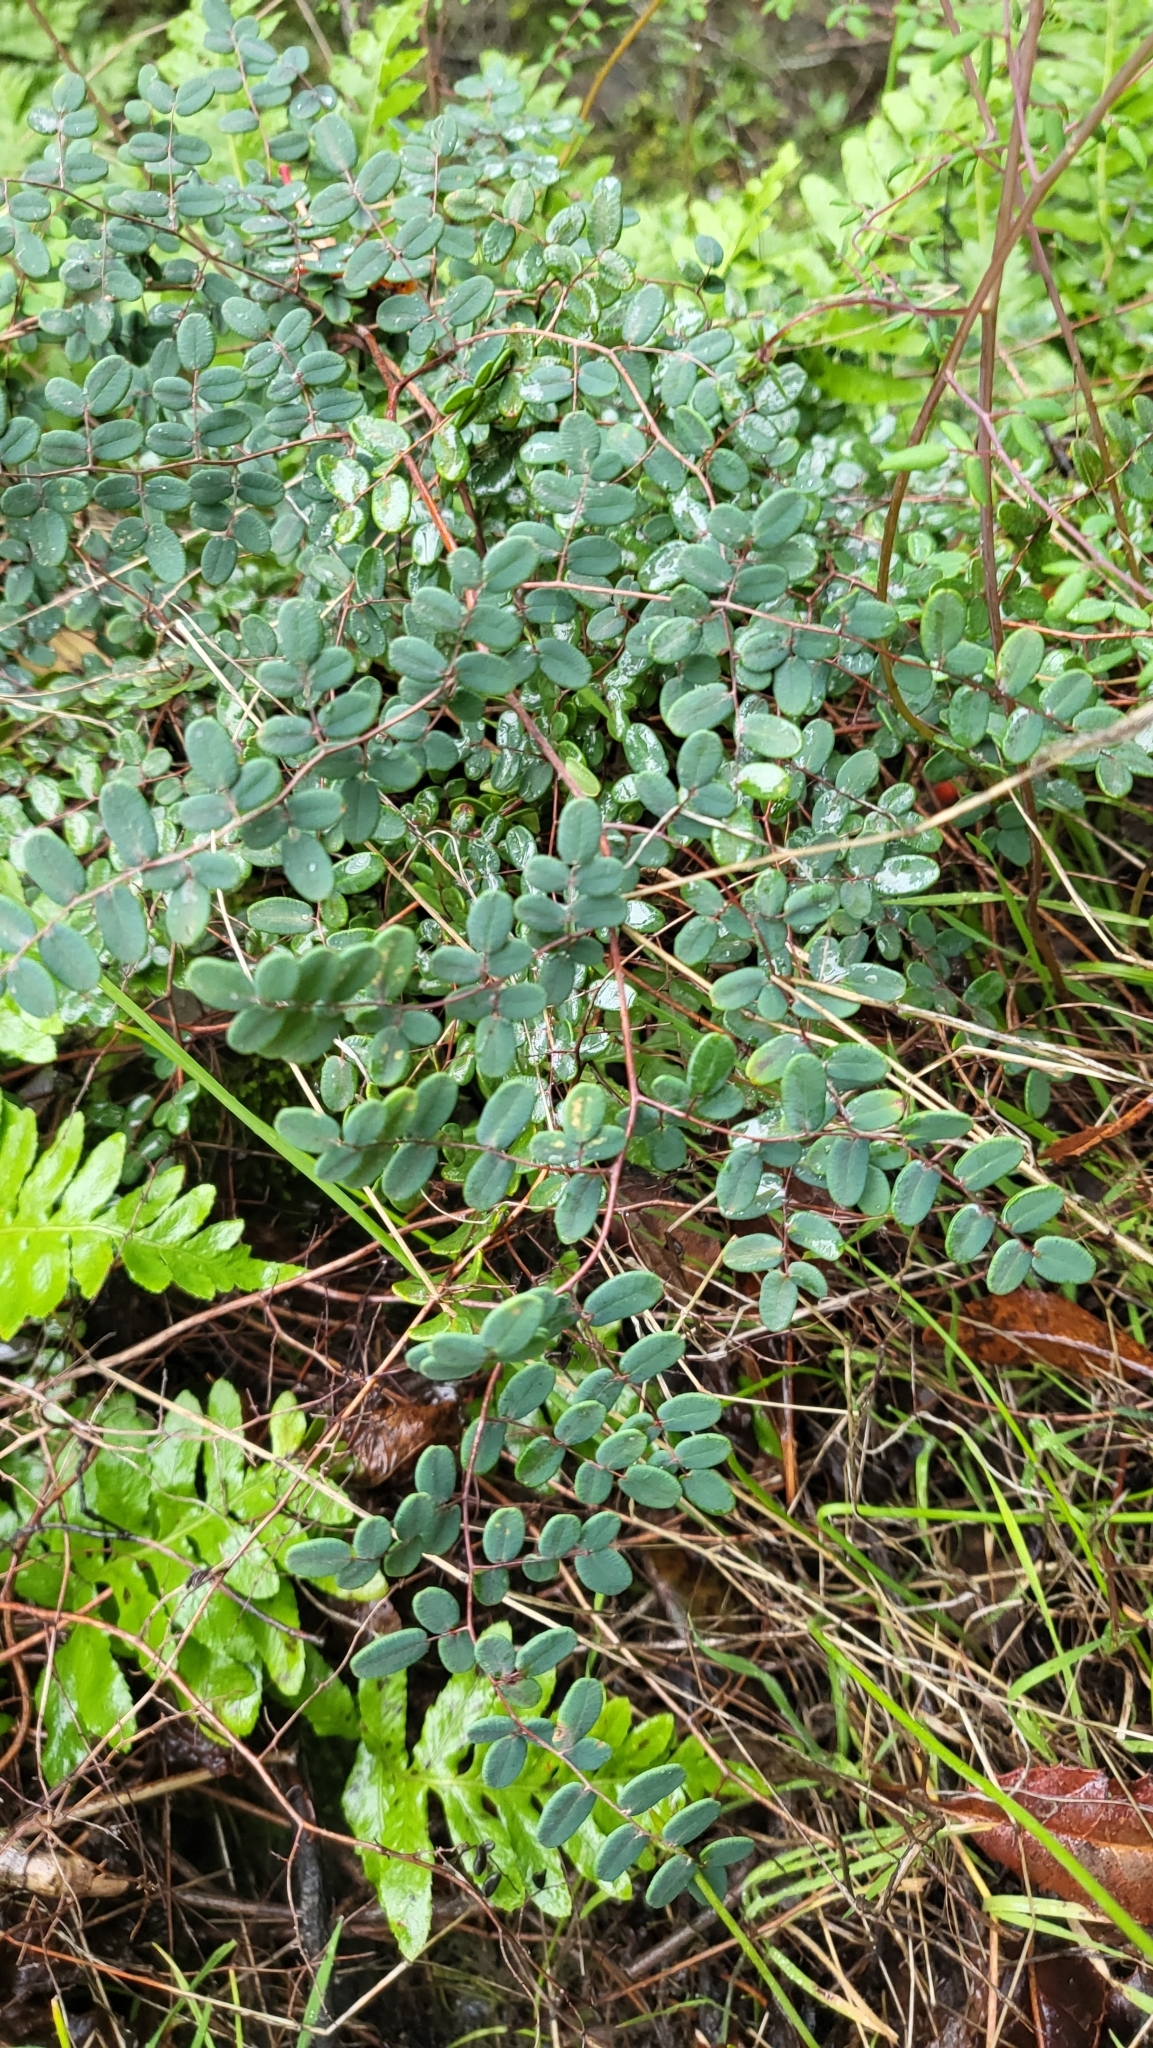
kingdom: Plantae
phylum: Tracheophyta
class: Polypodiopsida
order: Polypodiales
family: Pteridaceae
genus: Pellaea
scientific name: Pellaea andromedifolia
